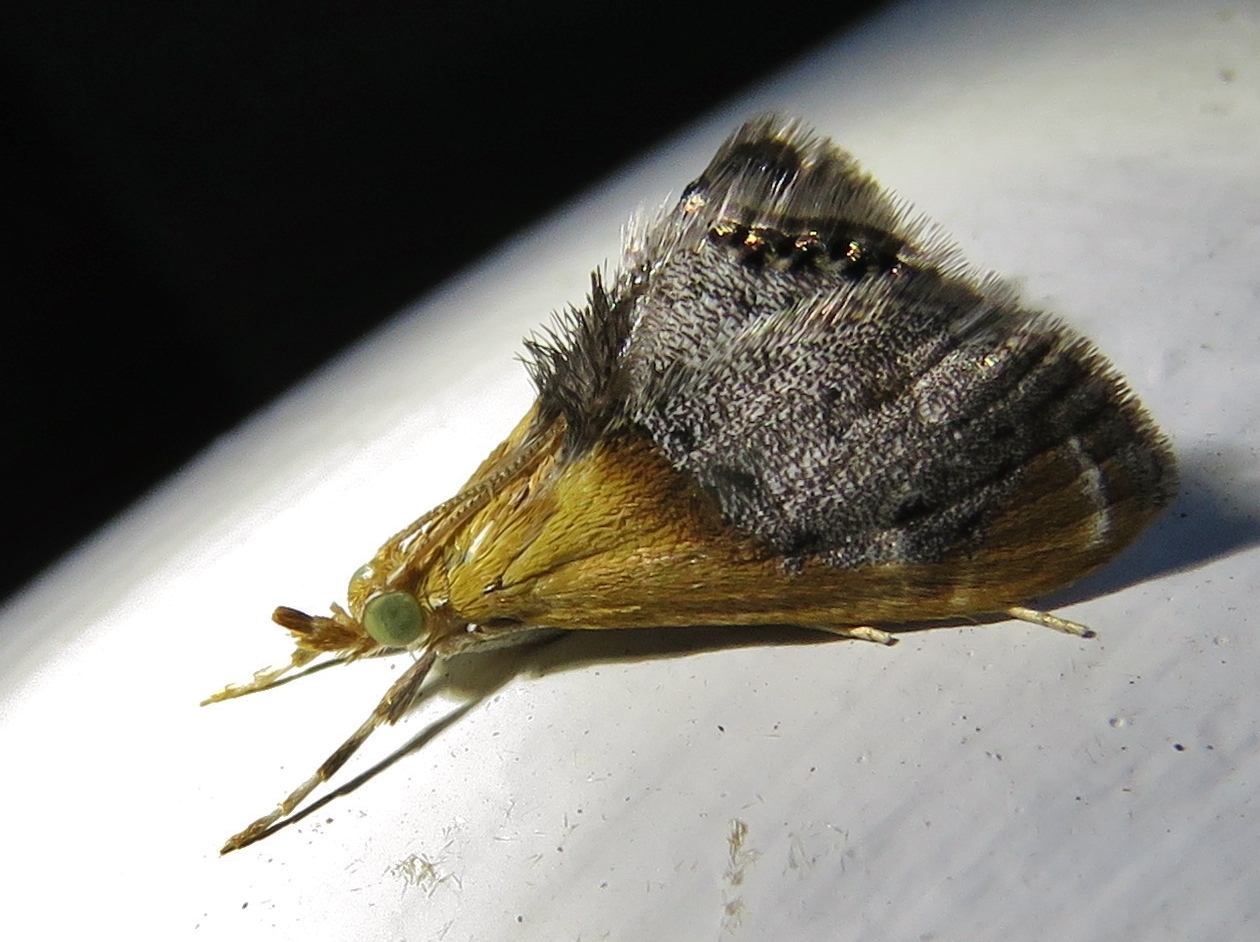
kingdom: Animalia
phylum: Arthropoda
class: Insecta
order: Lepidoptera
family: Crambidae
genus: Chalcoela
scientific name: Chalcoela iphitalis
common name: Sooty-winged chalcoela moth
